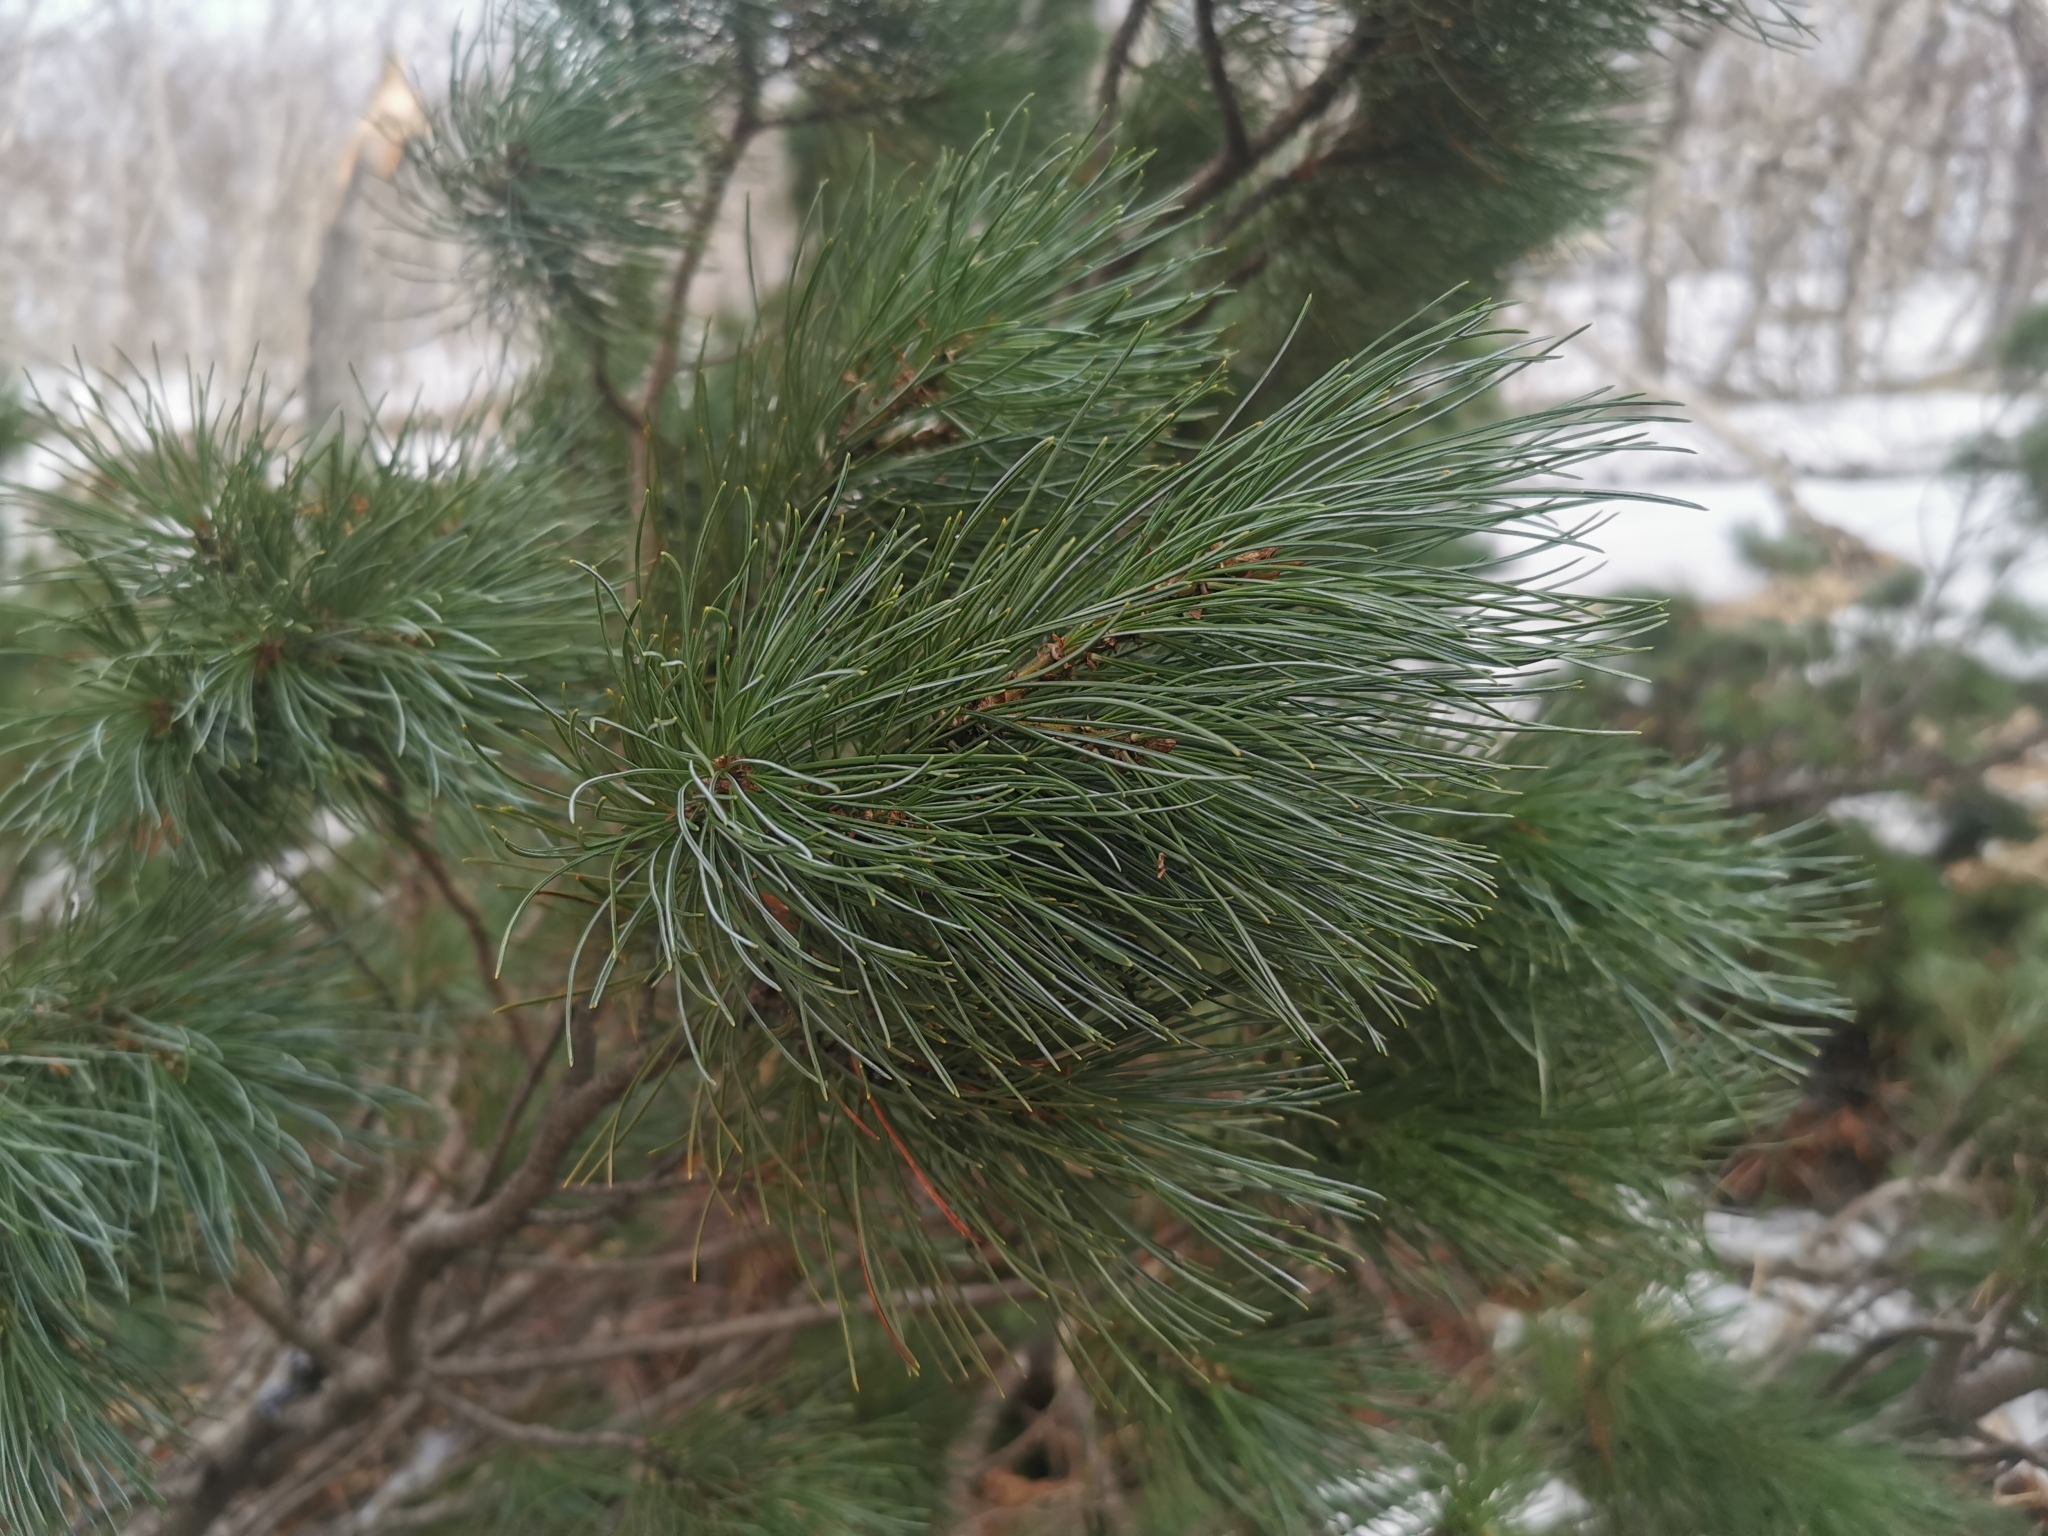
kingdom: Plantae
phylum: Tracheophyta
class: Pinopsida
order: Pinales
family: Pinaceae
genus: Pinus
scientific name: Pinus pumila
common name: Dwarf siberian pine
